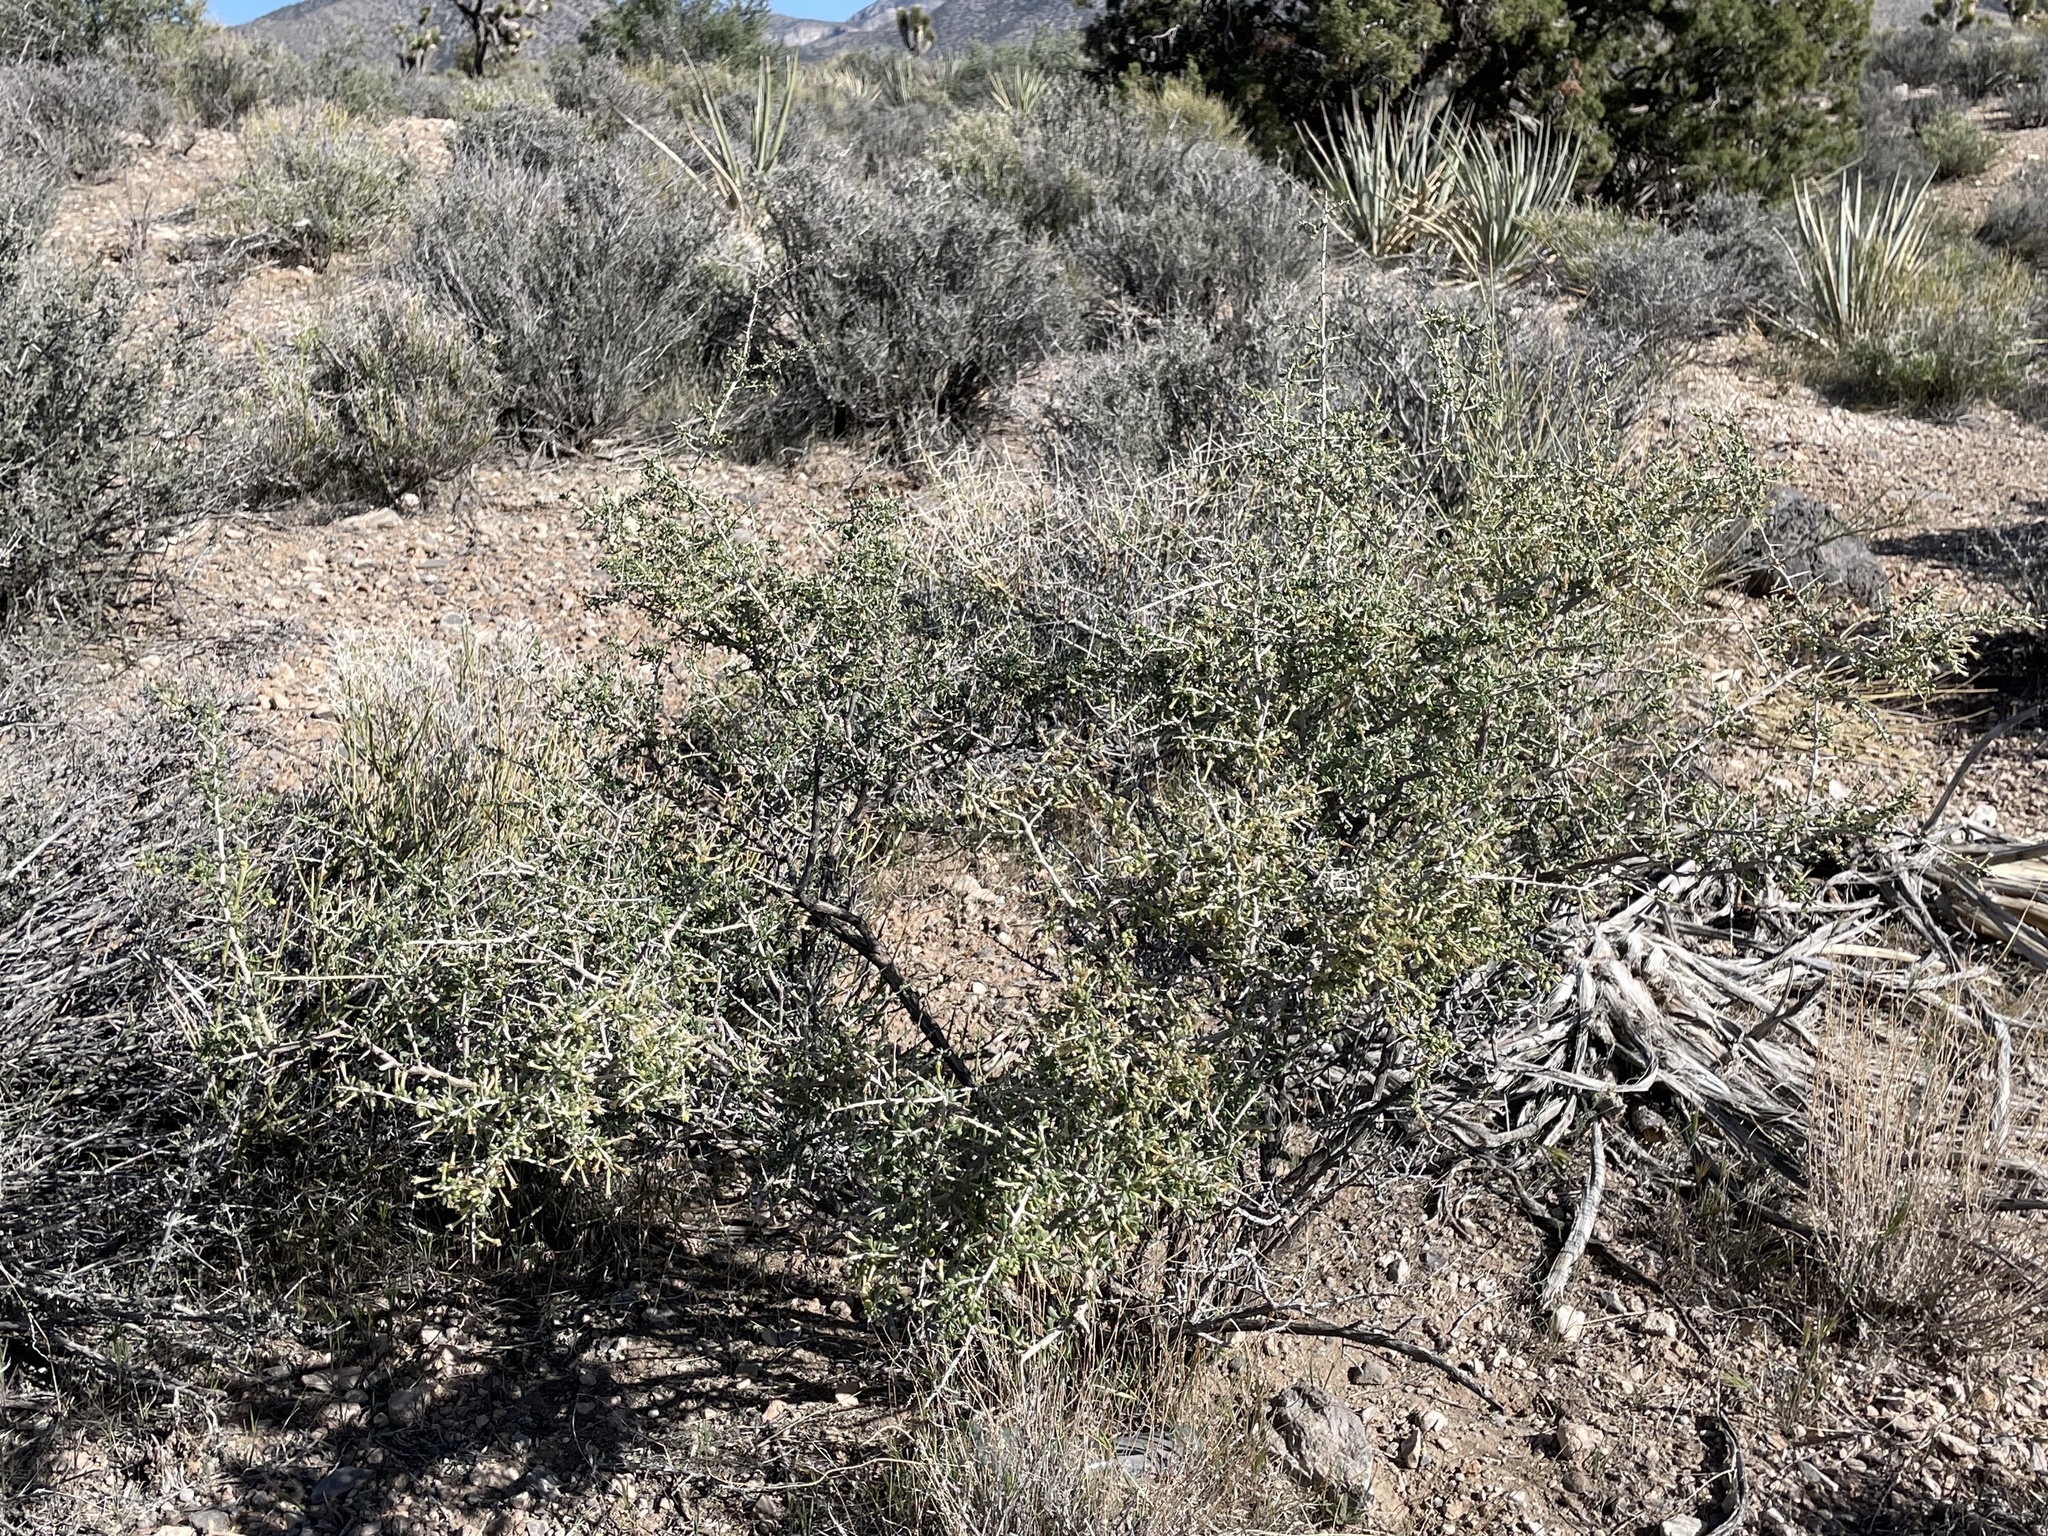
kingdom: Plantae
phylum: Tracheophyta
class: Magnoliopsida
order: Solanales
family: Solanaceae
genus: Lycium
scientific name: Lycium andersonii
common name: Water-jacket
